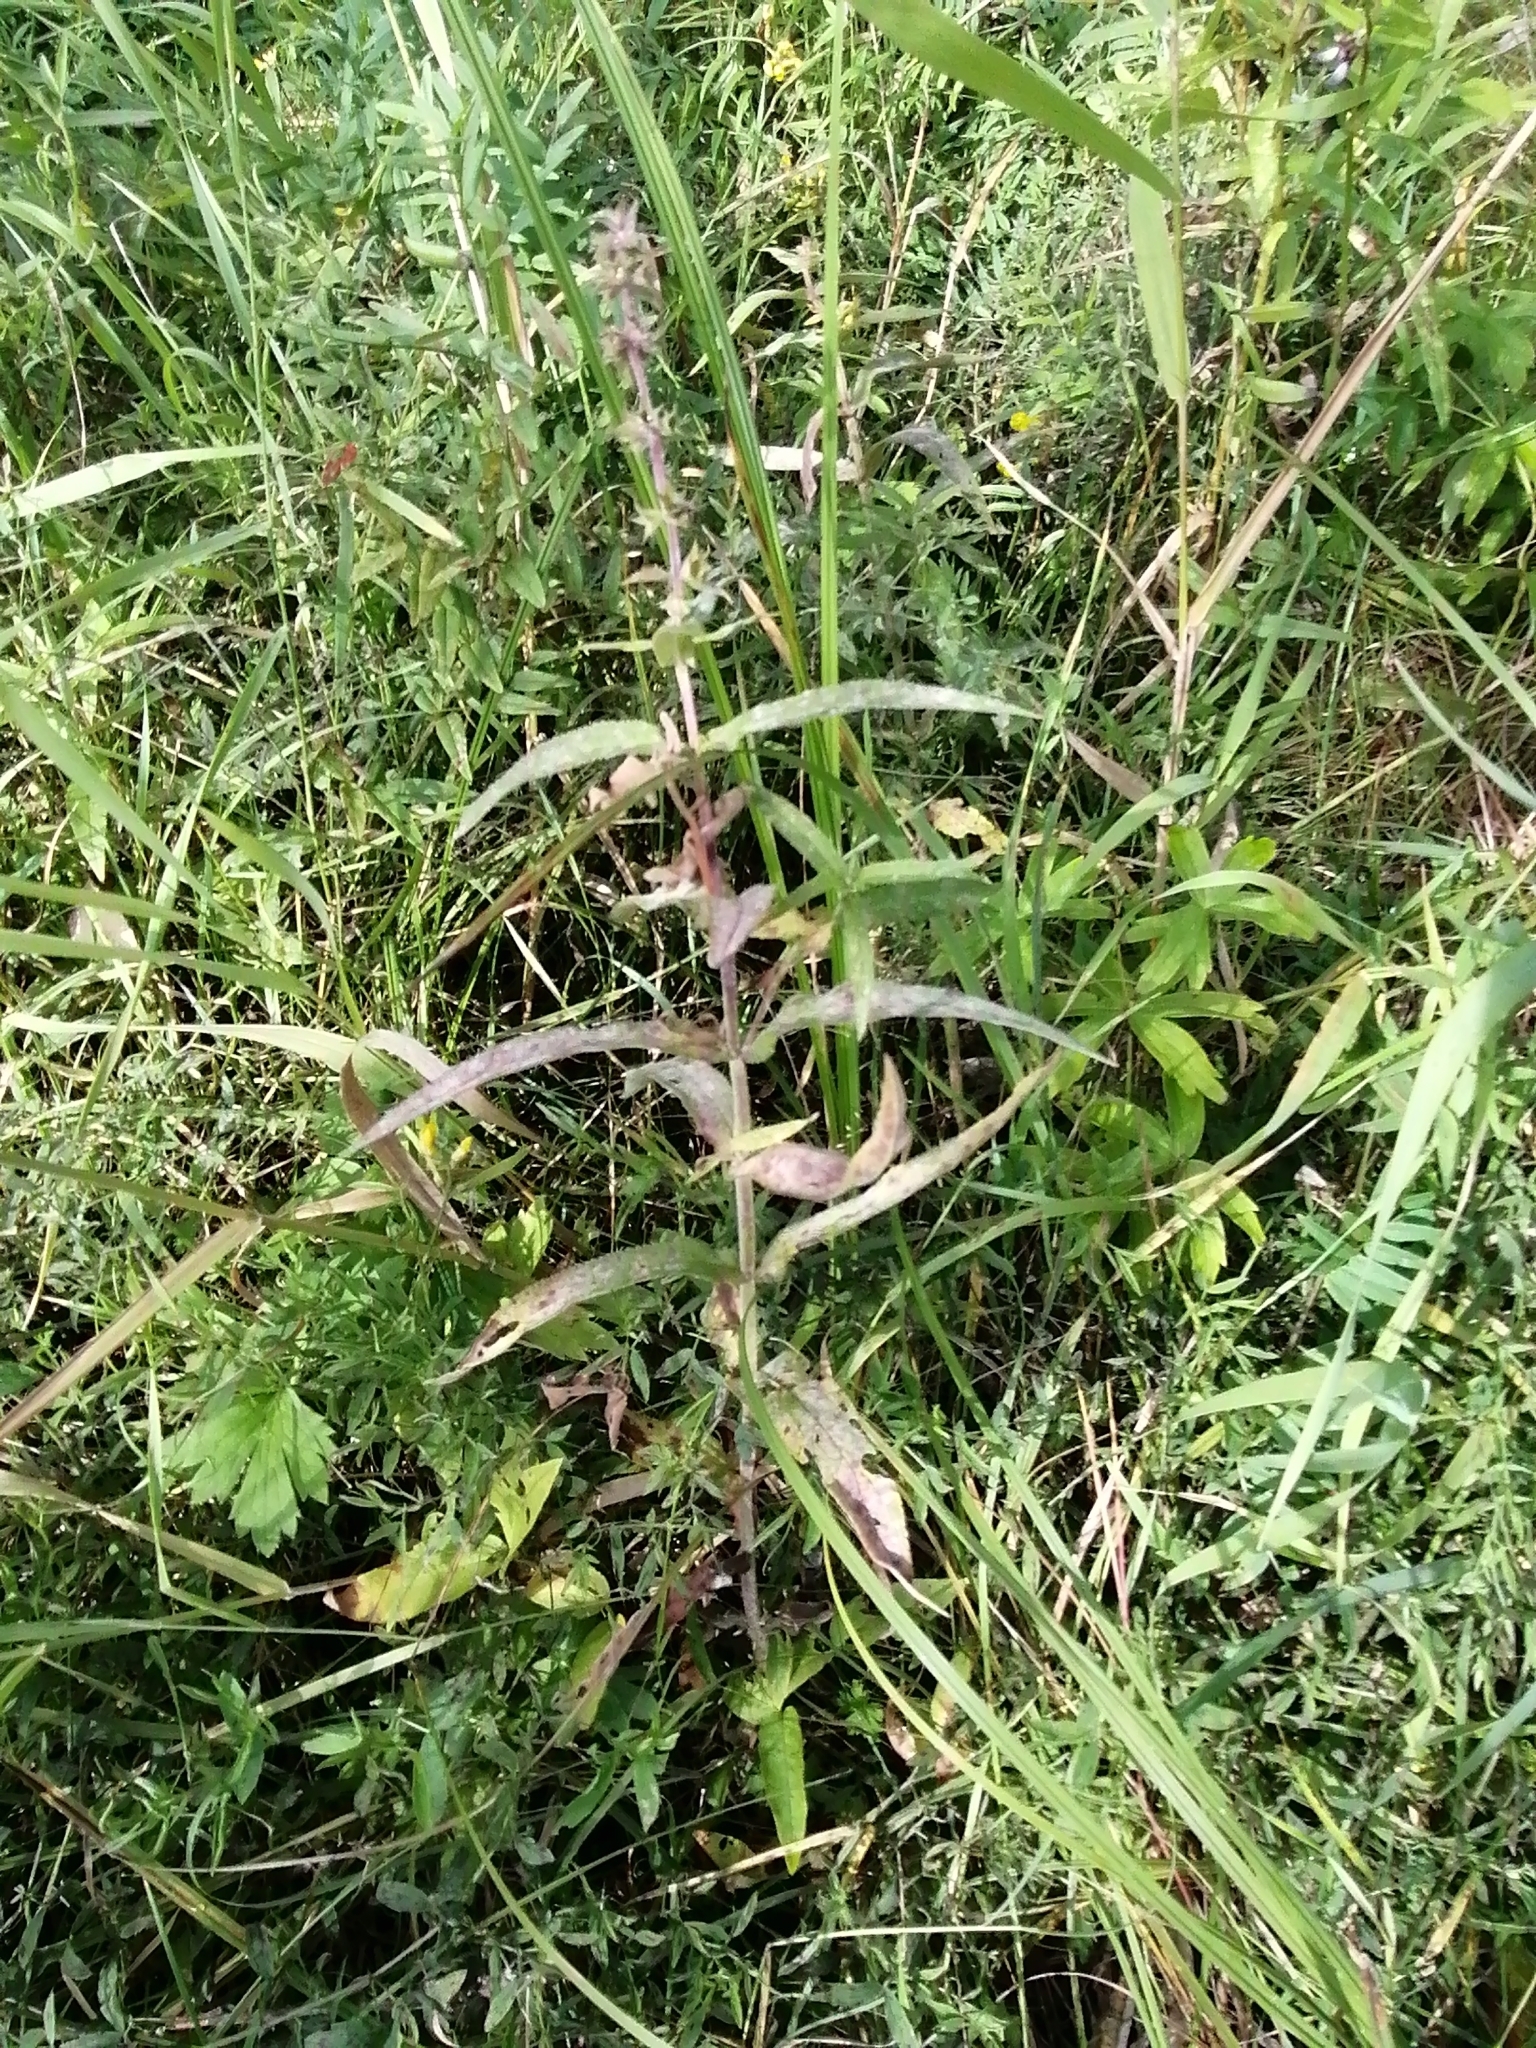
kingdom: Plantae
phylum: Tracheophyta
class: Magnoliopsida
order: Lamiales
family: Lamiaceae
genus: Stachys
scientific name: Stachys palustris
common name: Marsh woundwort
